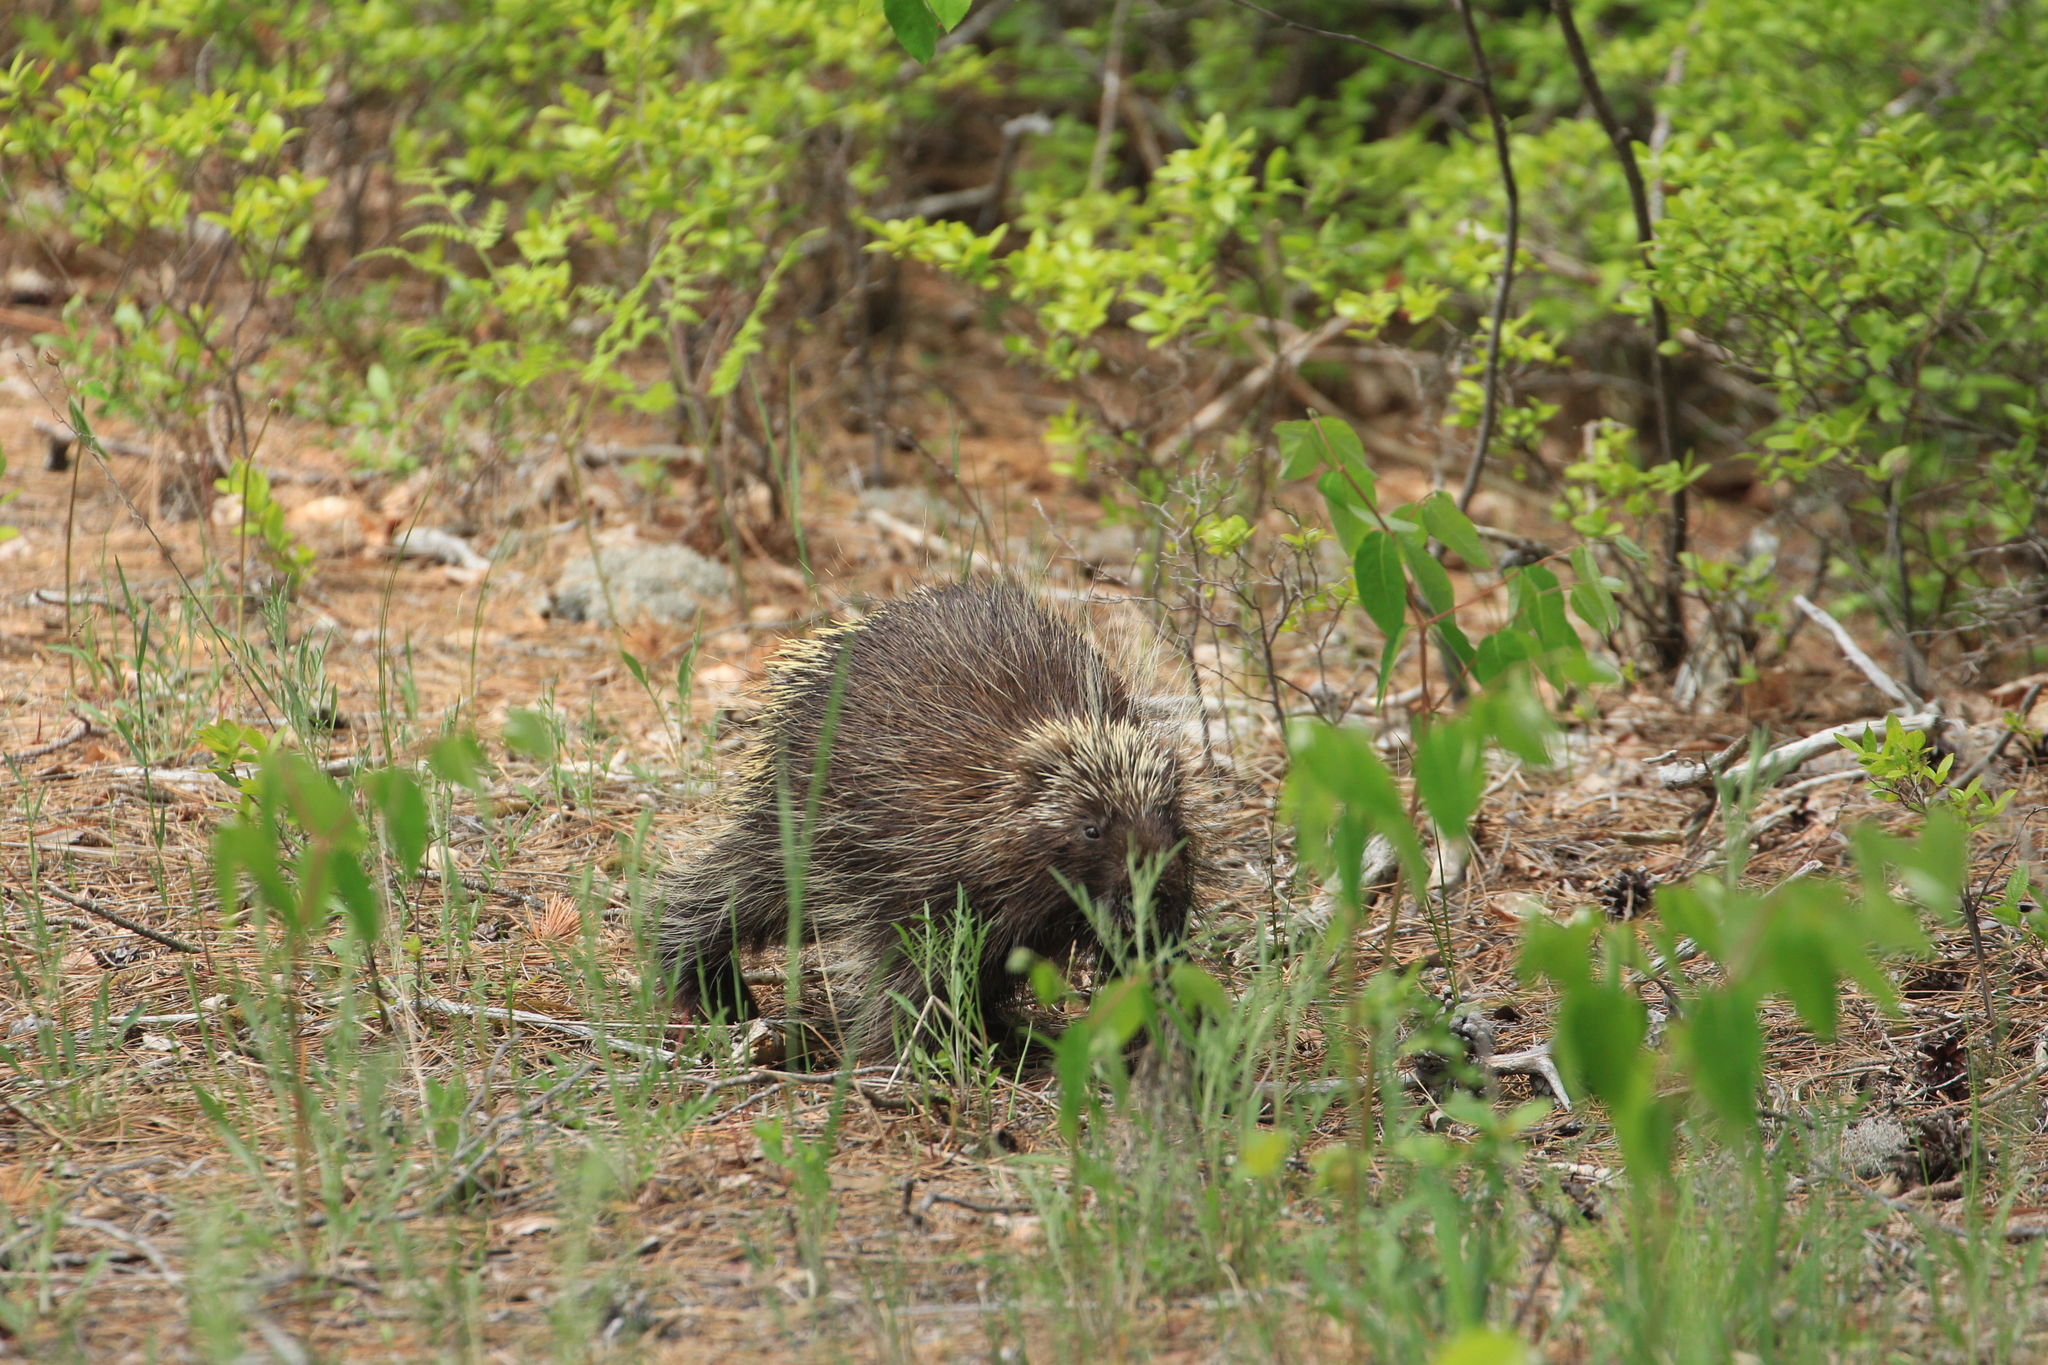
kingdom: Animalia
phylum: Chordata
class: Mammalia
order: Rodentia
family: Erethizontidae
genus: Erethizon
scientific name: Erethizon dorsatus
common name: North american porcupine
